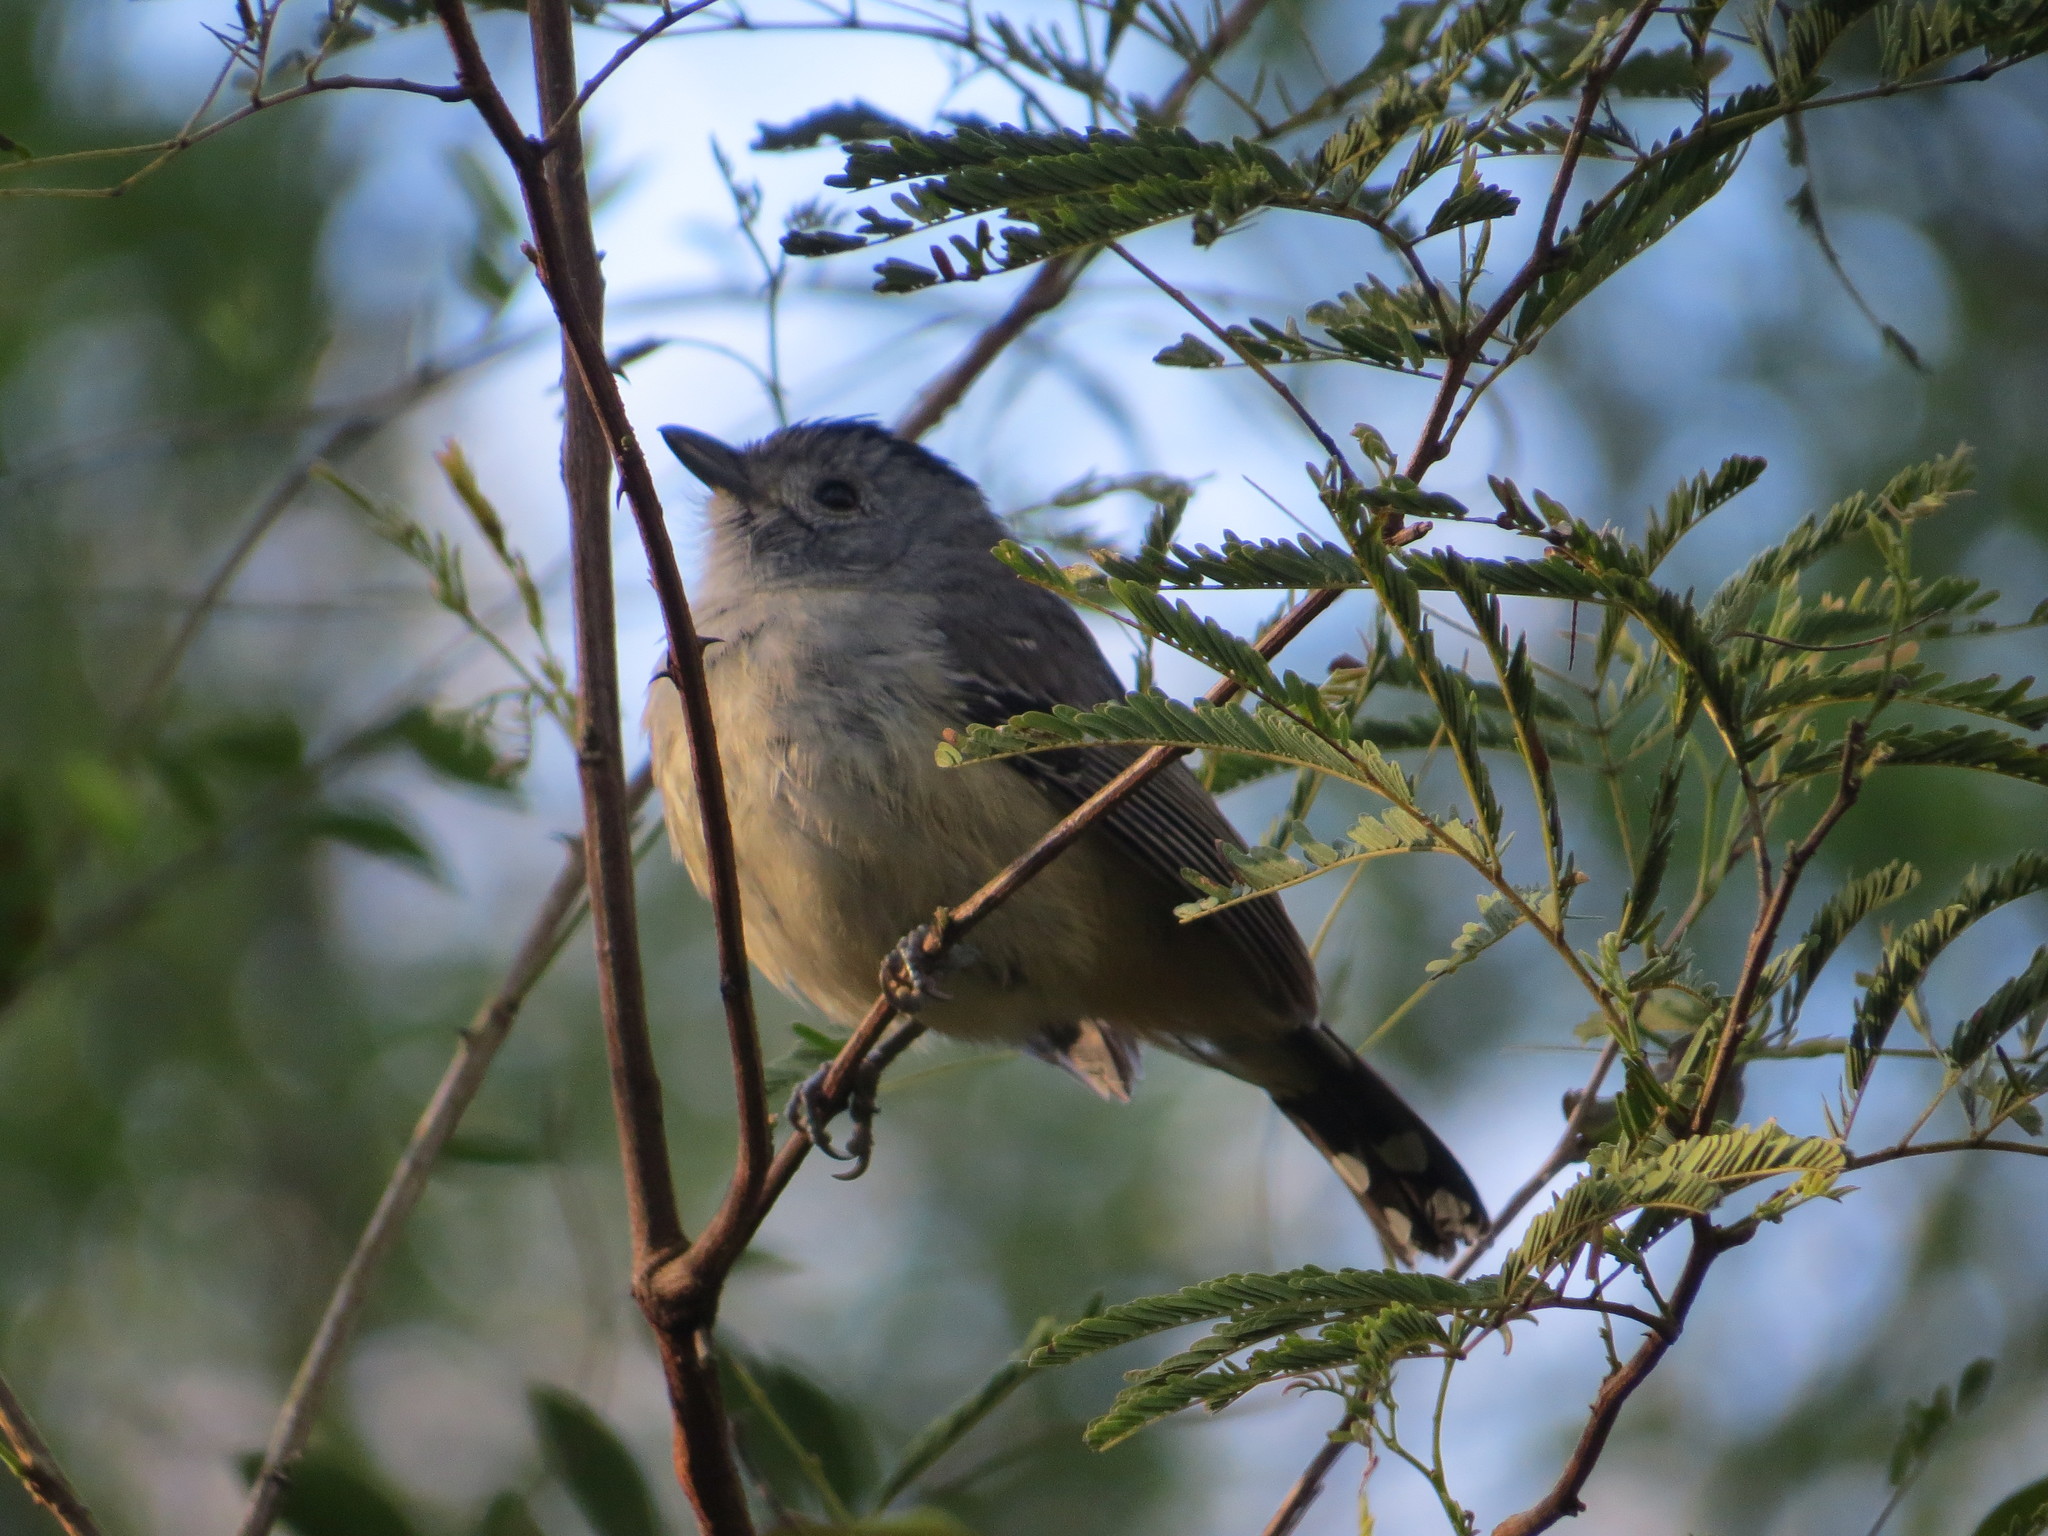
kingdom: Animalia
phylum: Chordata
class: Aves
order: Passeriformes
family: Thamnophilidae
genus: Thamnophilus
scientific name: Thamnophilus caerulescens
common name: Variable antshrike
